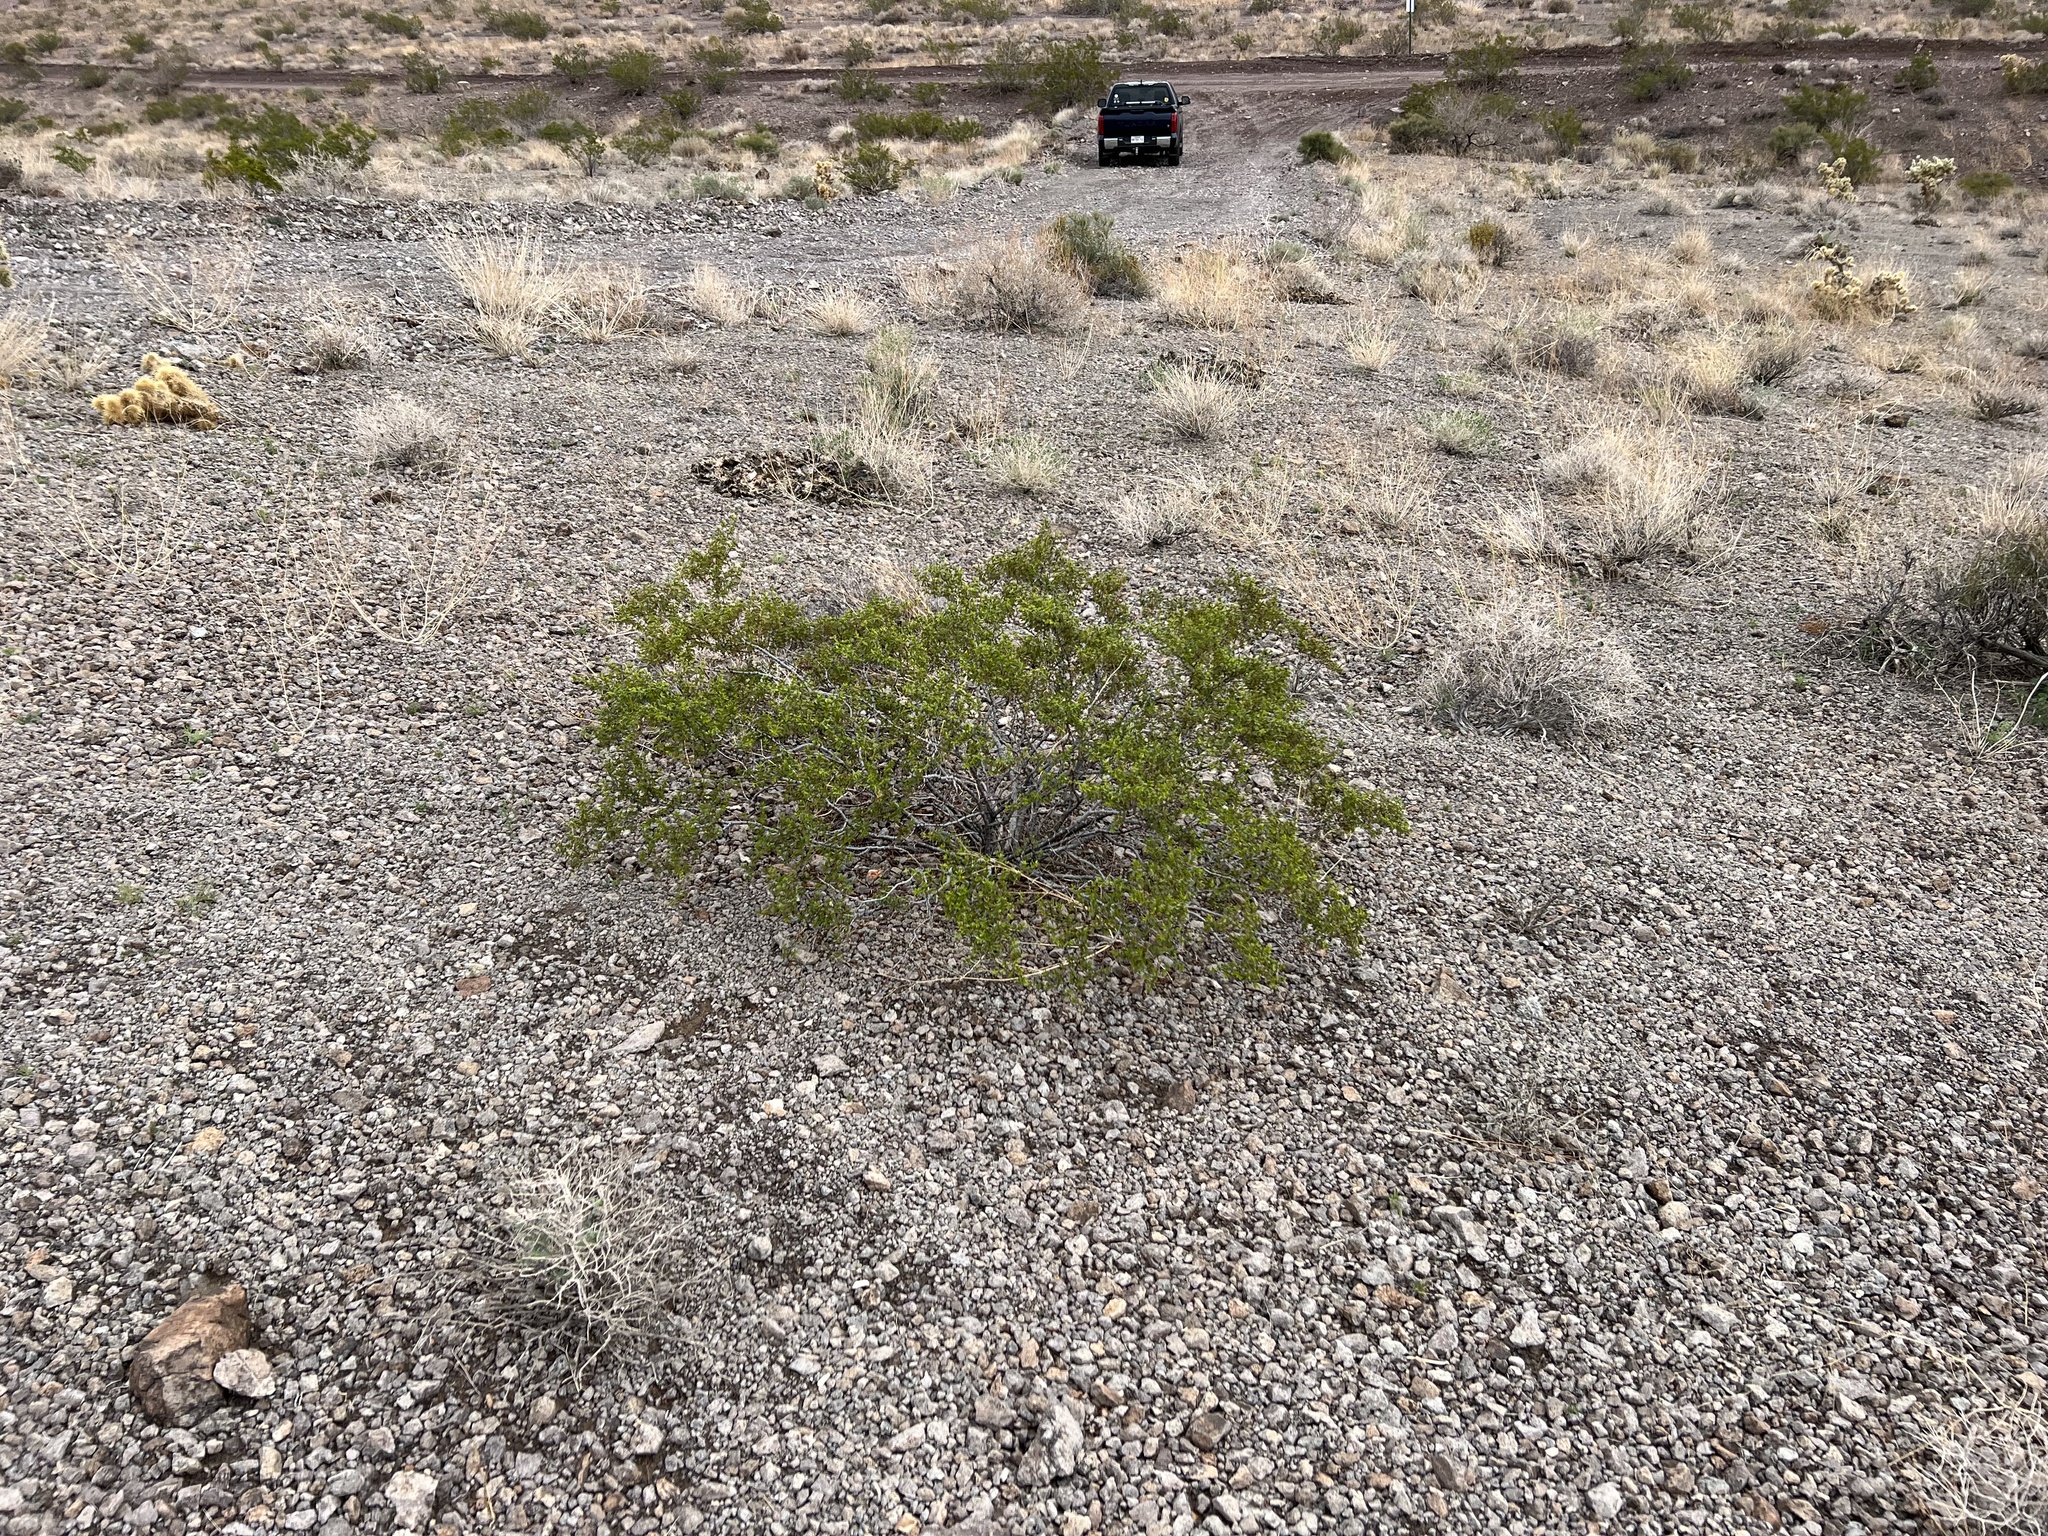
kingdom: Plantae
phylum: Tracheophyta
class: Magnoliopsida
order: Zygophyllales
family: Zygophyllaceae
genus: Larrea
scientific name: Larrea tridentata
